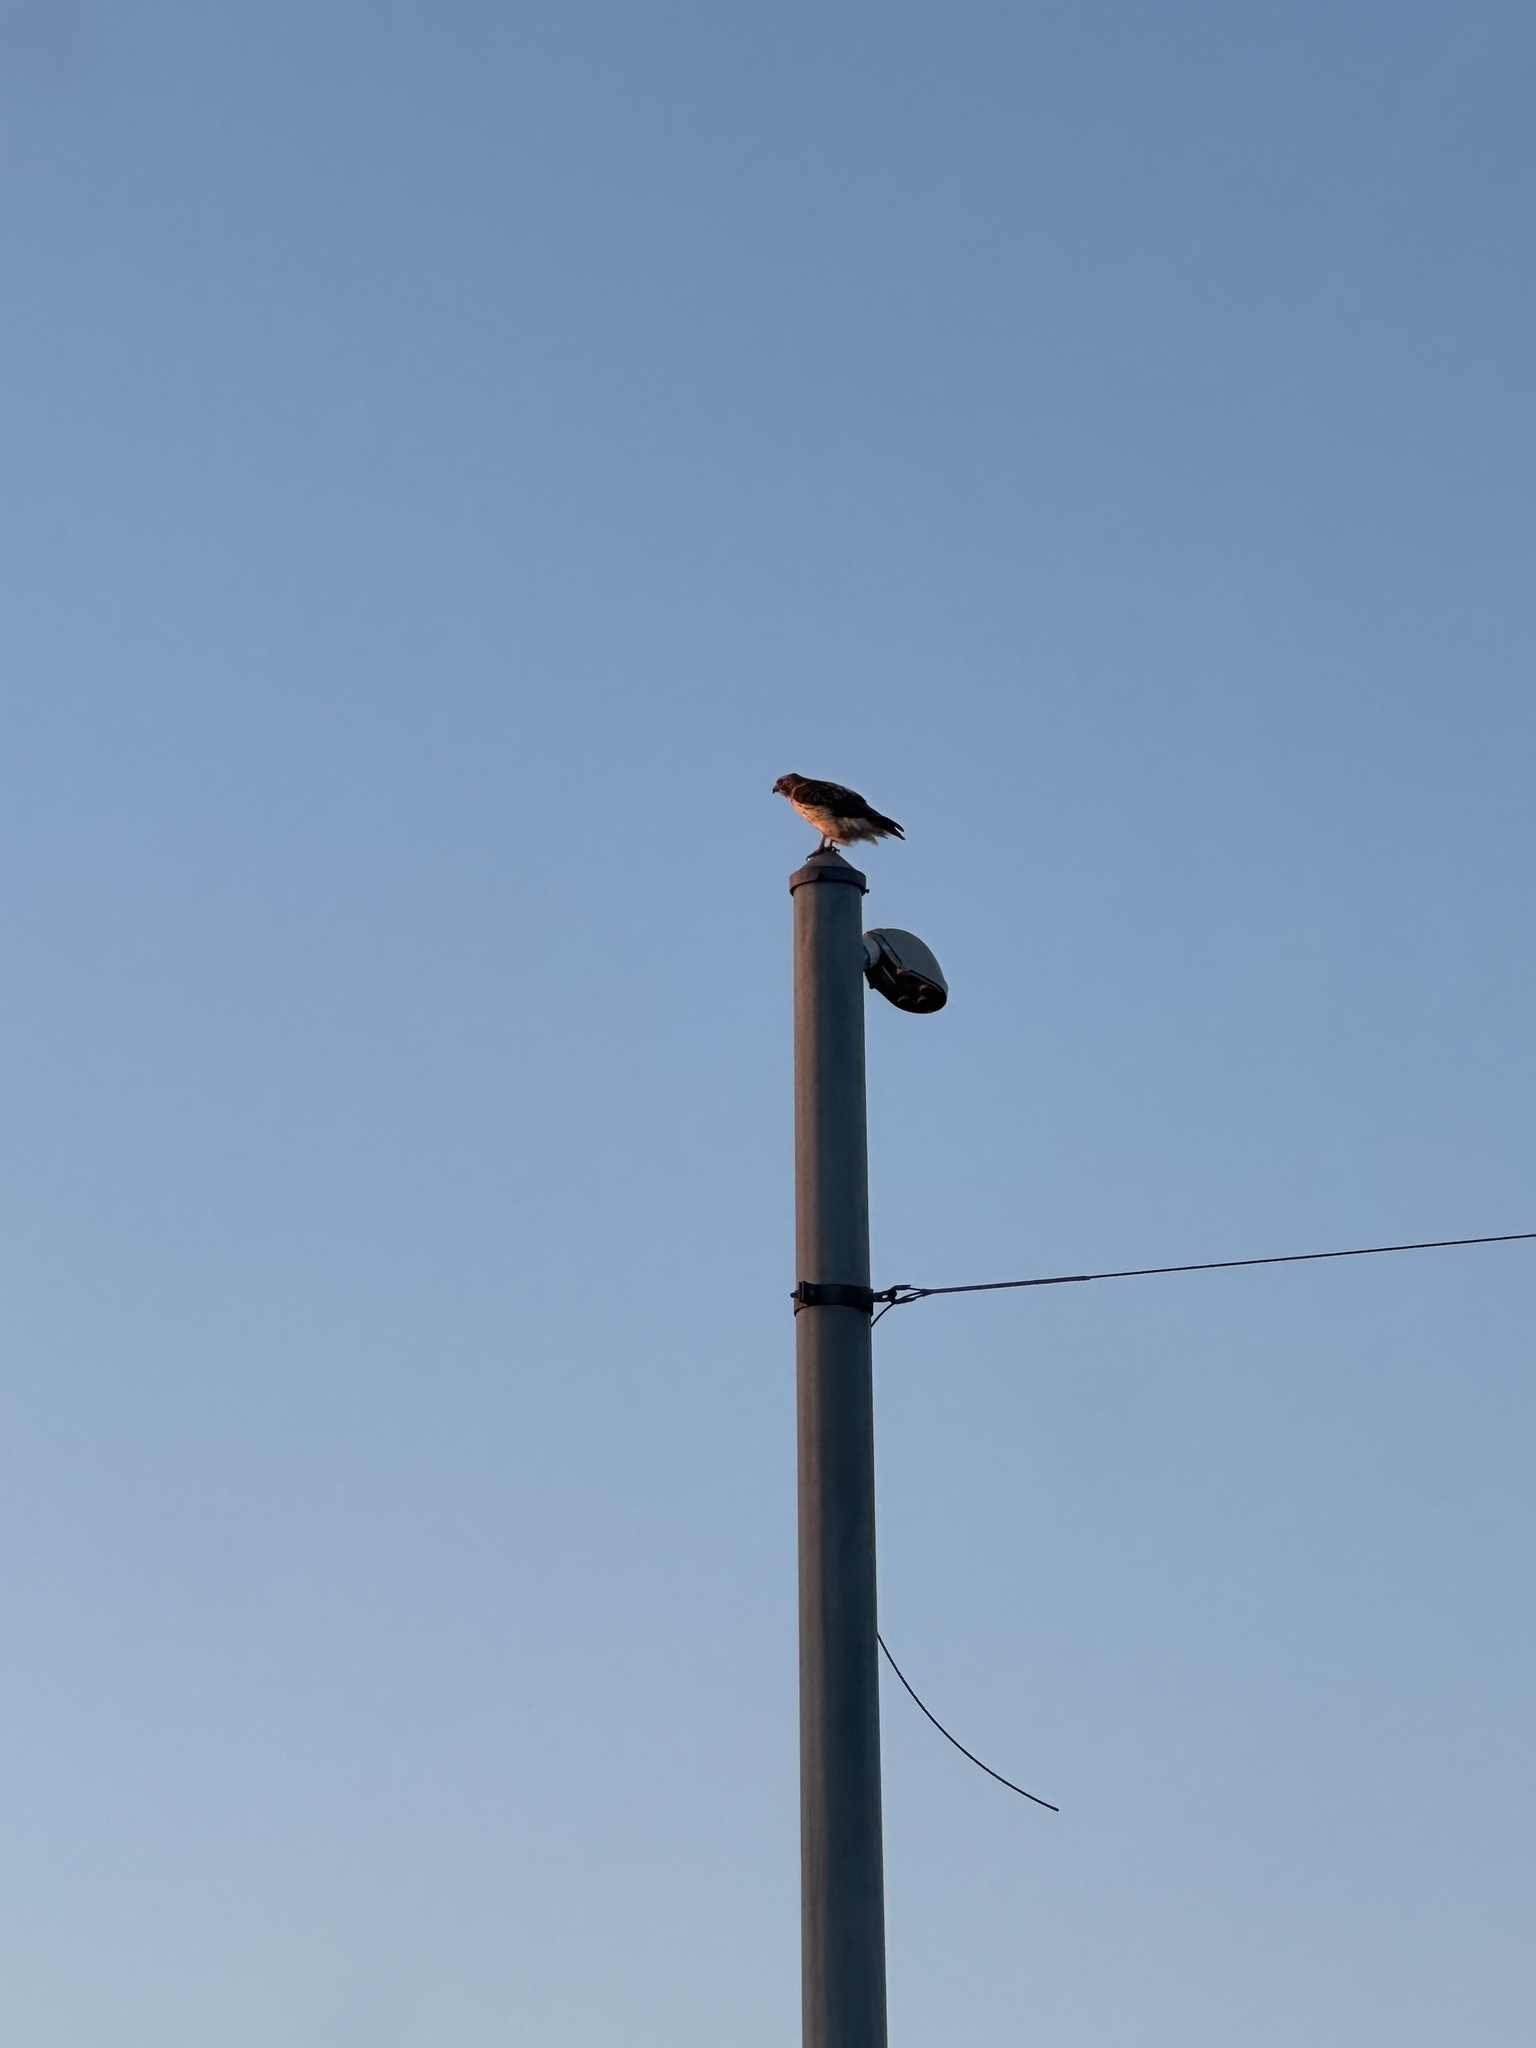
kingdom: Animalia
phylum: Chordata
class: Aves
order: Accipitriformes
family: Accipitridae
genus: Buteo
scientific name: Buteo jamaicensis
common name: Red-tailed hawk
